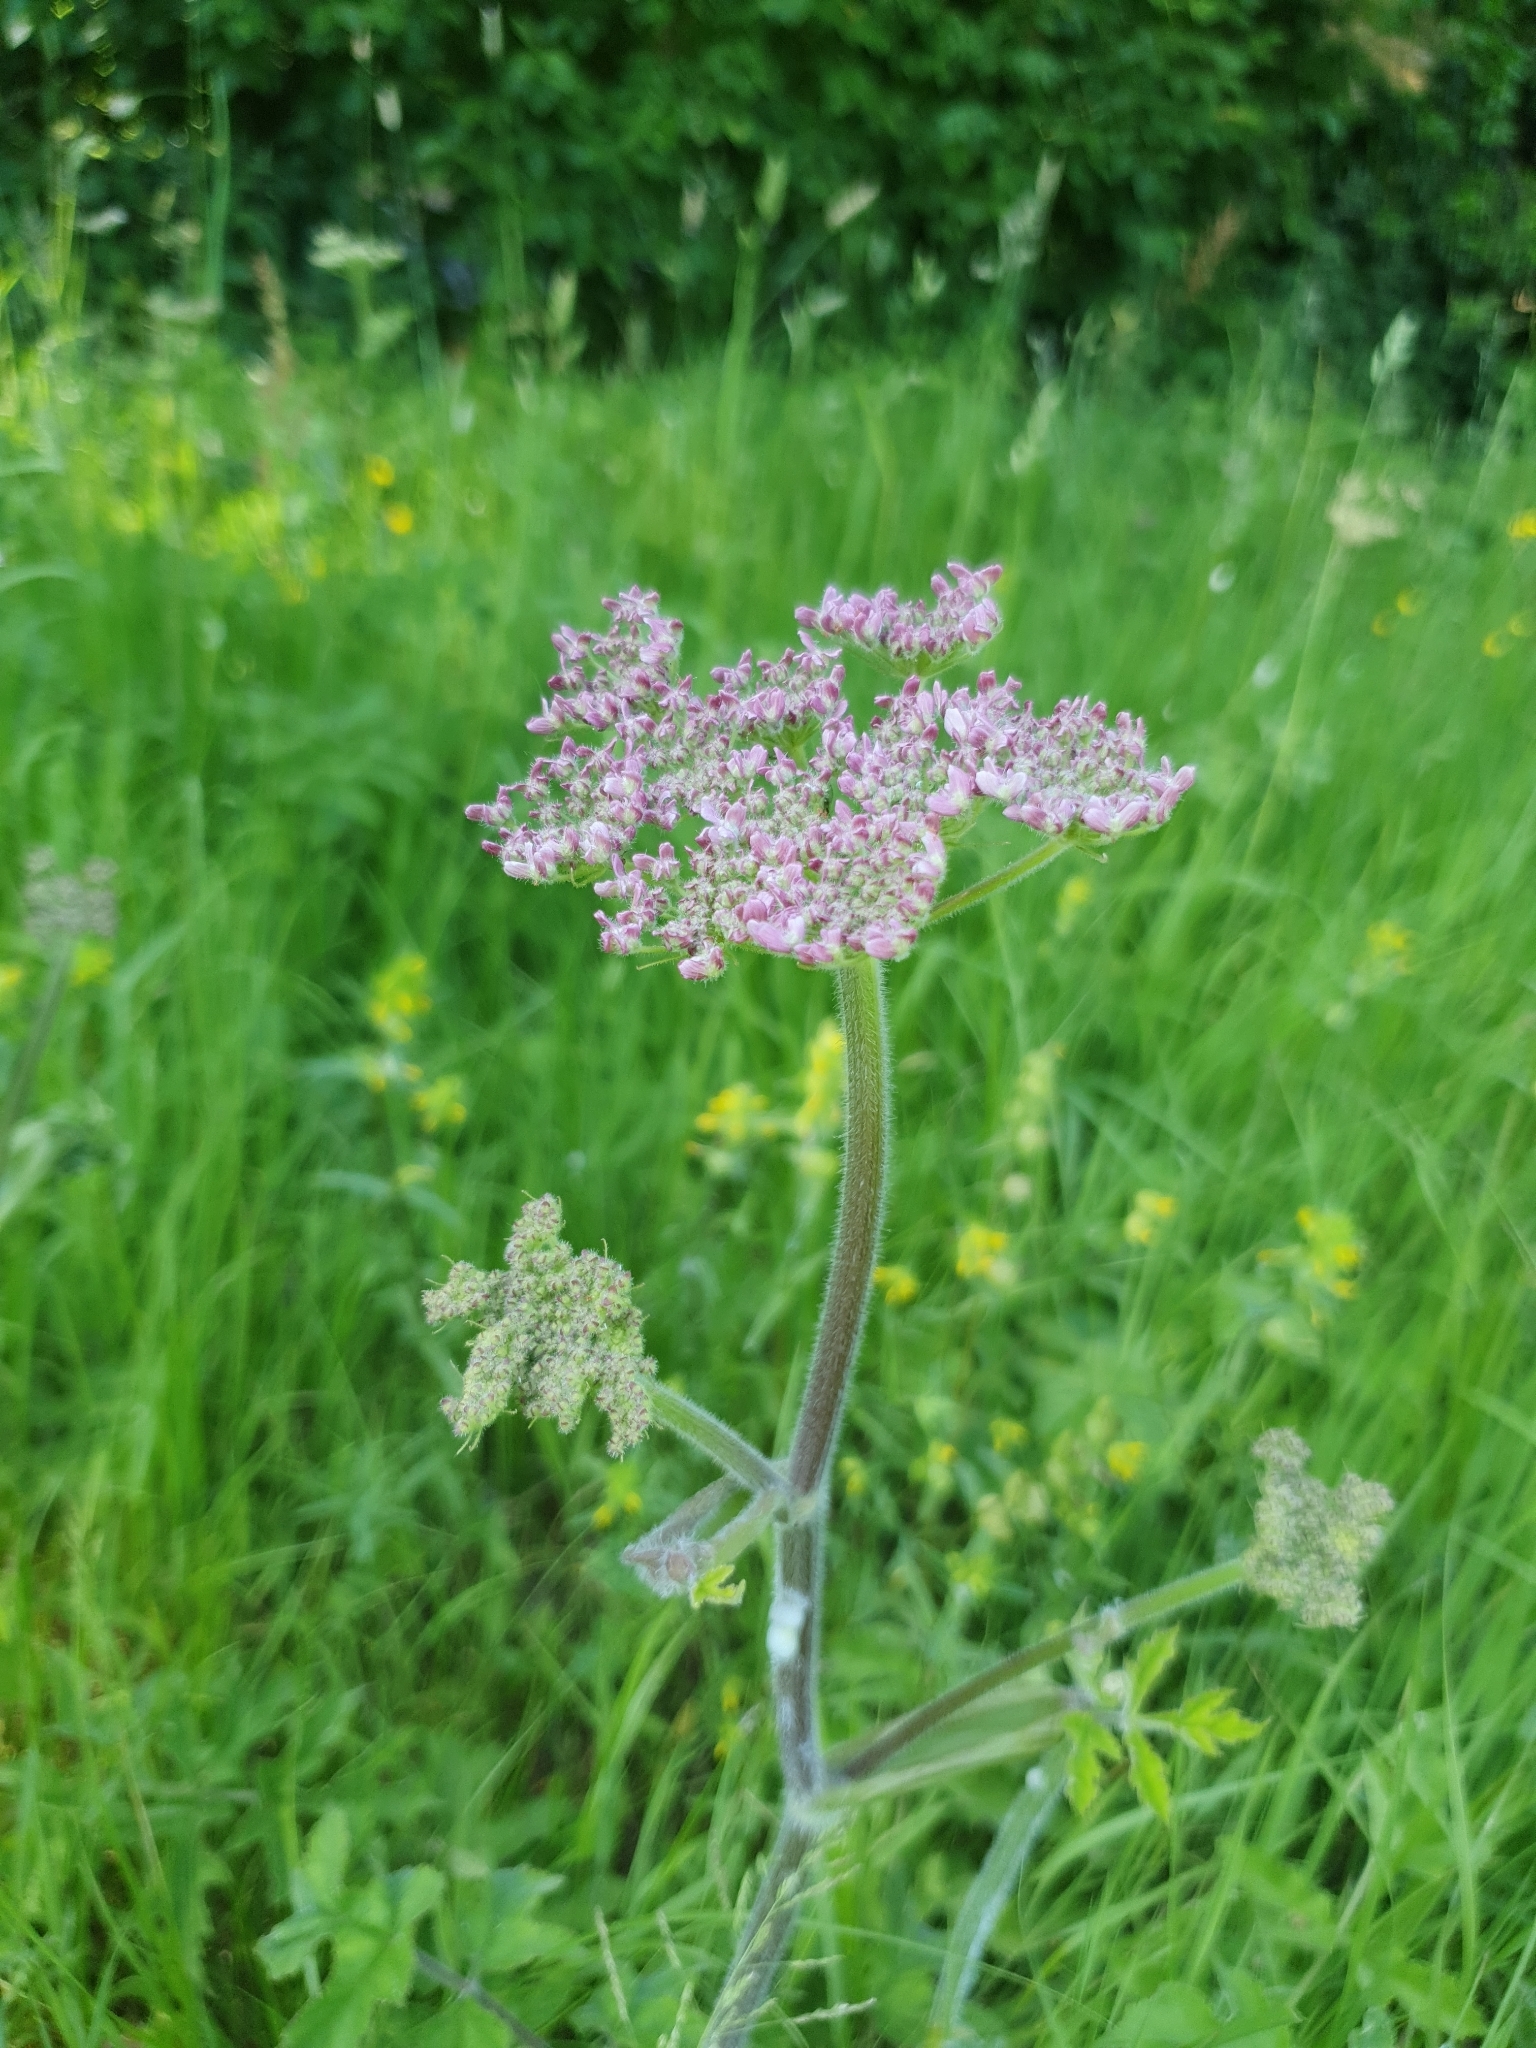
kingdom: Plantae
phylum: Tracheophyta
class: Magnoliopsida
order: Apiales
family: Apiaceae
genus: Heracleum
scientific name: Heracleum sphondylium
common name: Hogweed
